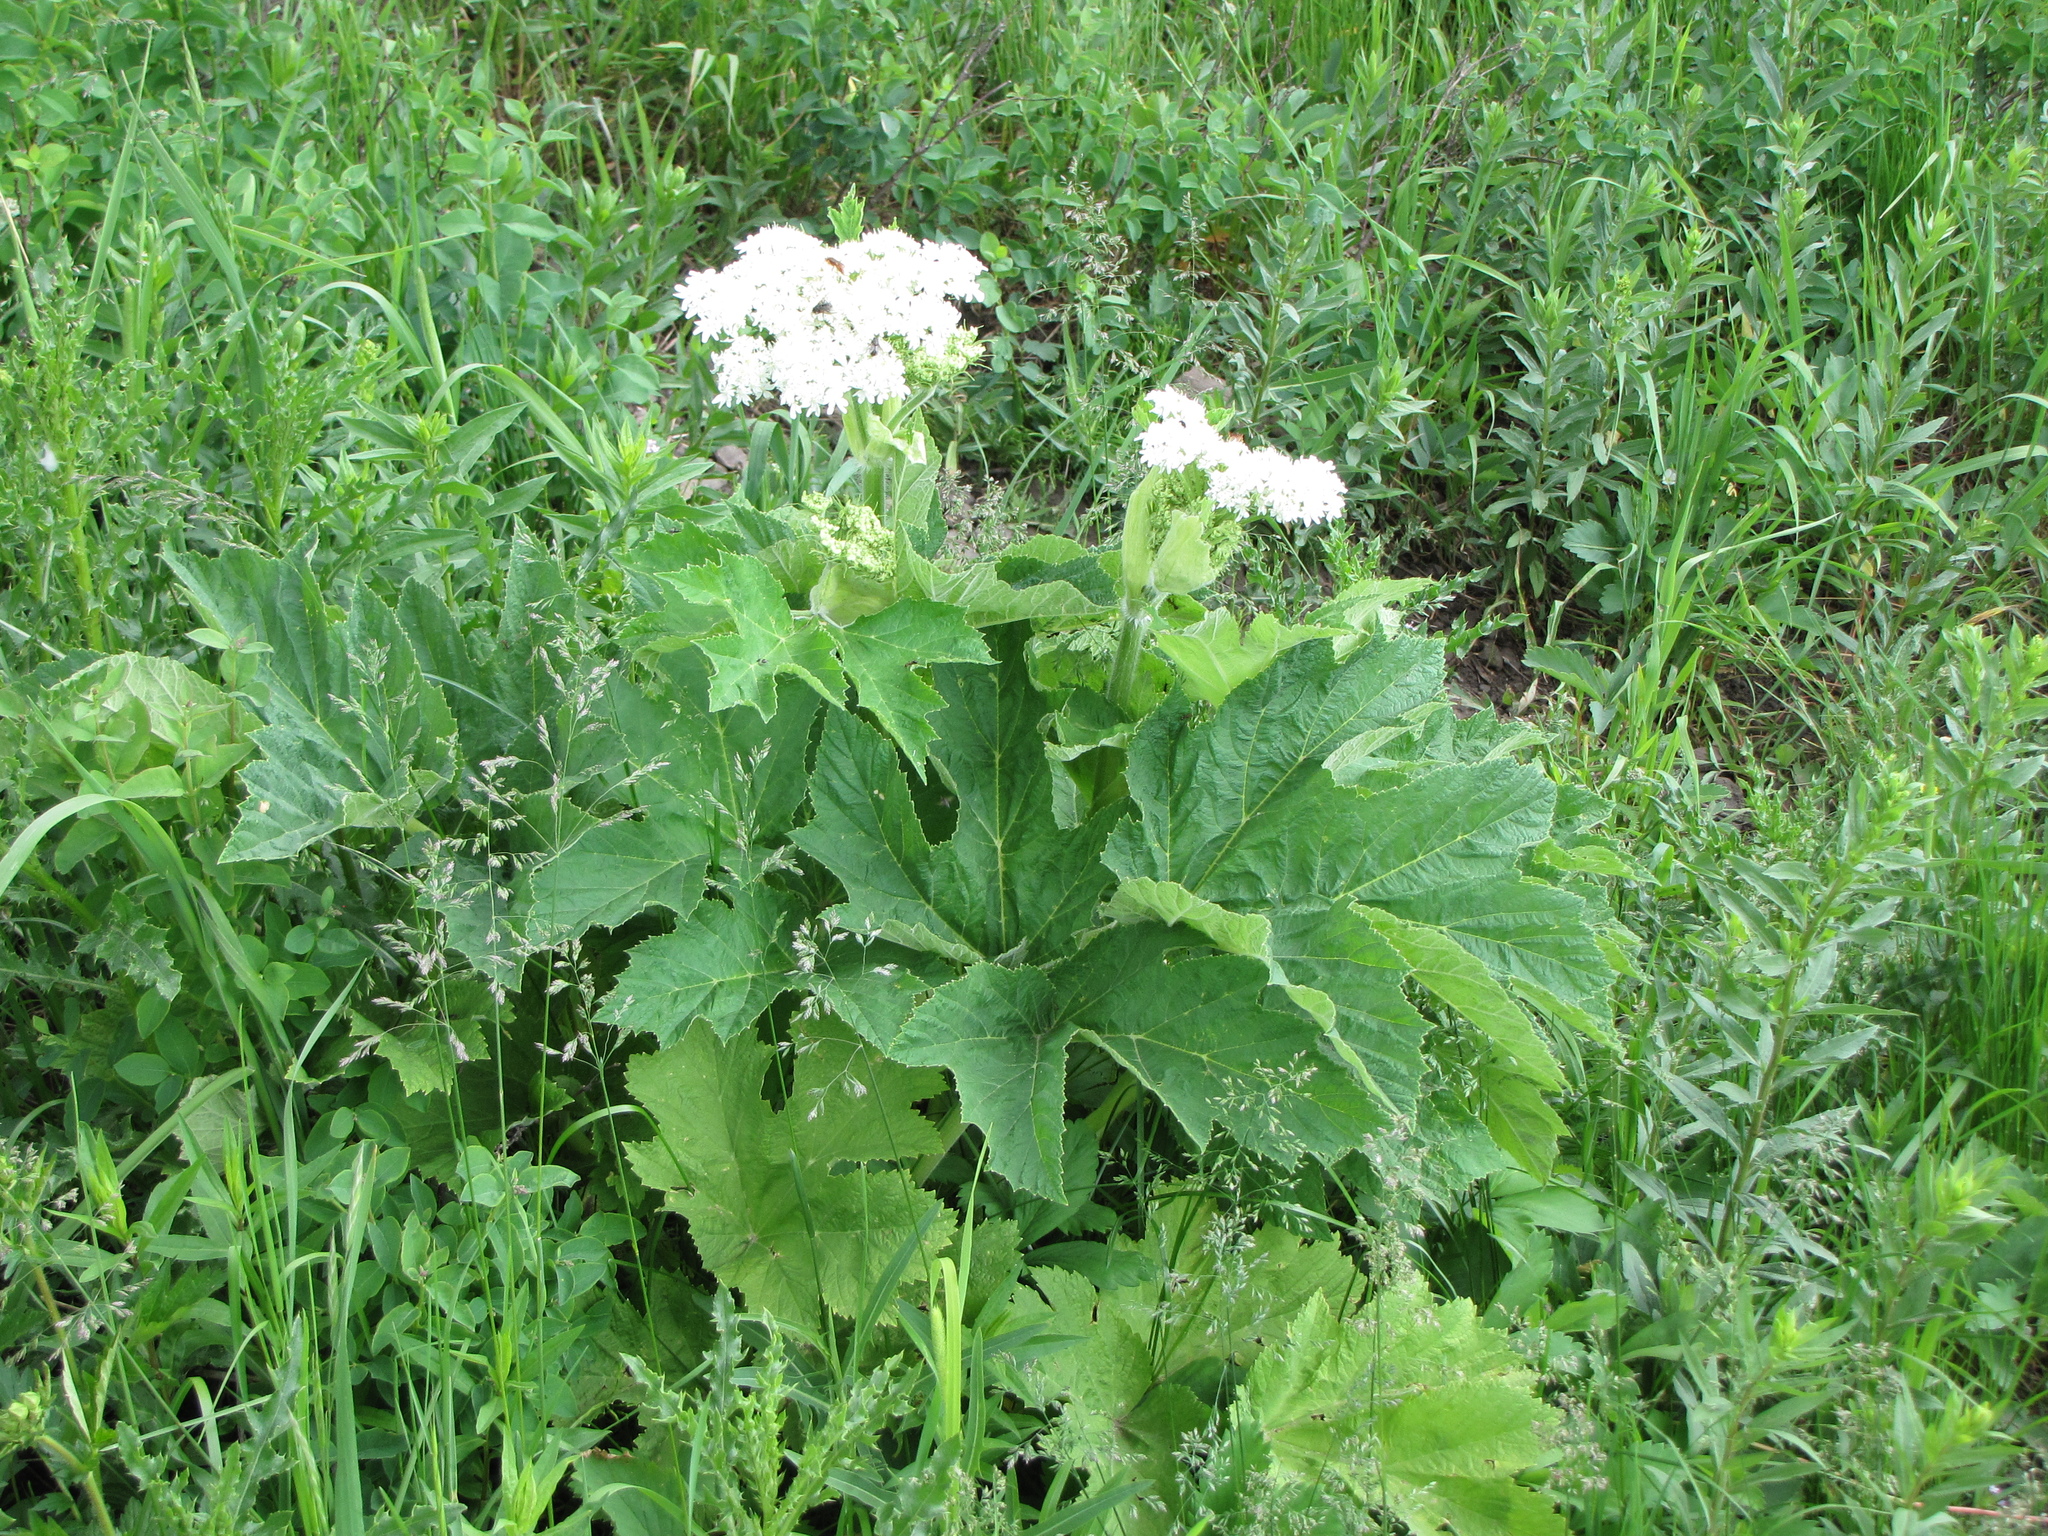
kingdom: Plantae
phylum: Tracheophyta
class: Magnoliopsida
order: Apiales
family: Apiaceae
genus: Heracleum
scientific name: Heracleum maximum
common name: American cow parsnip
